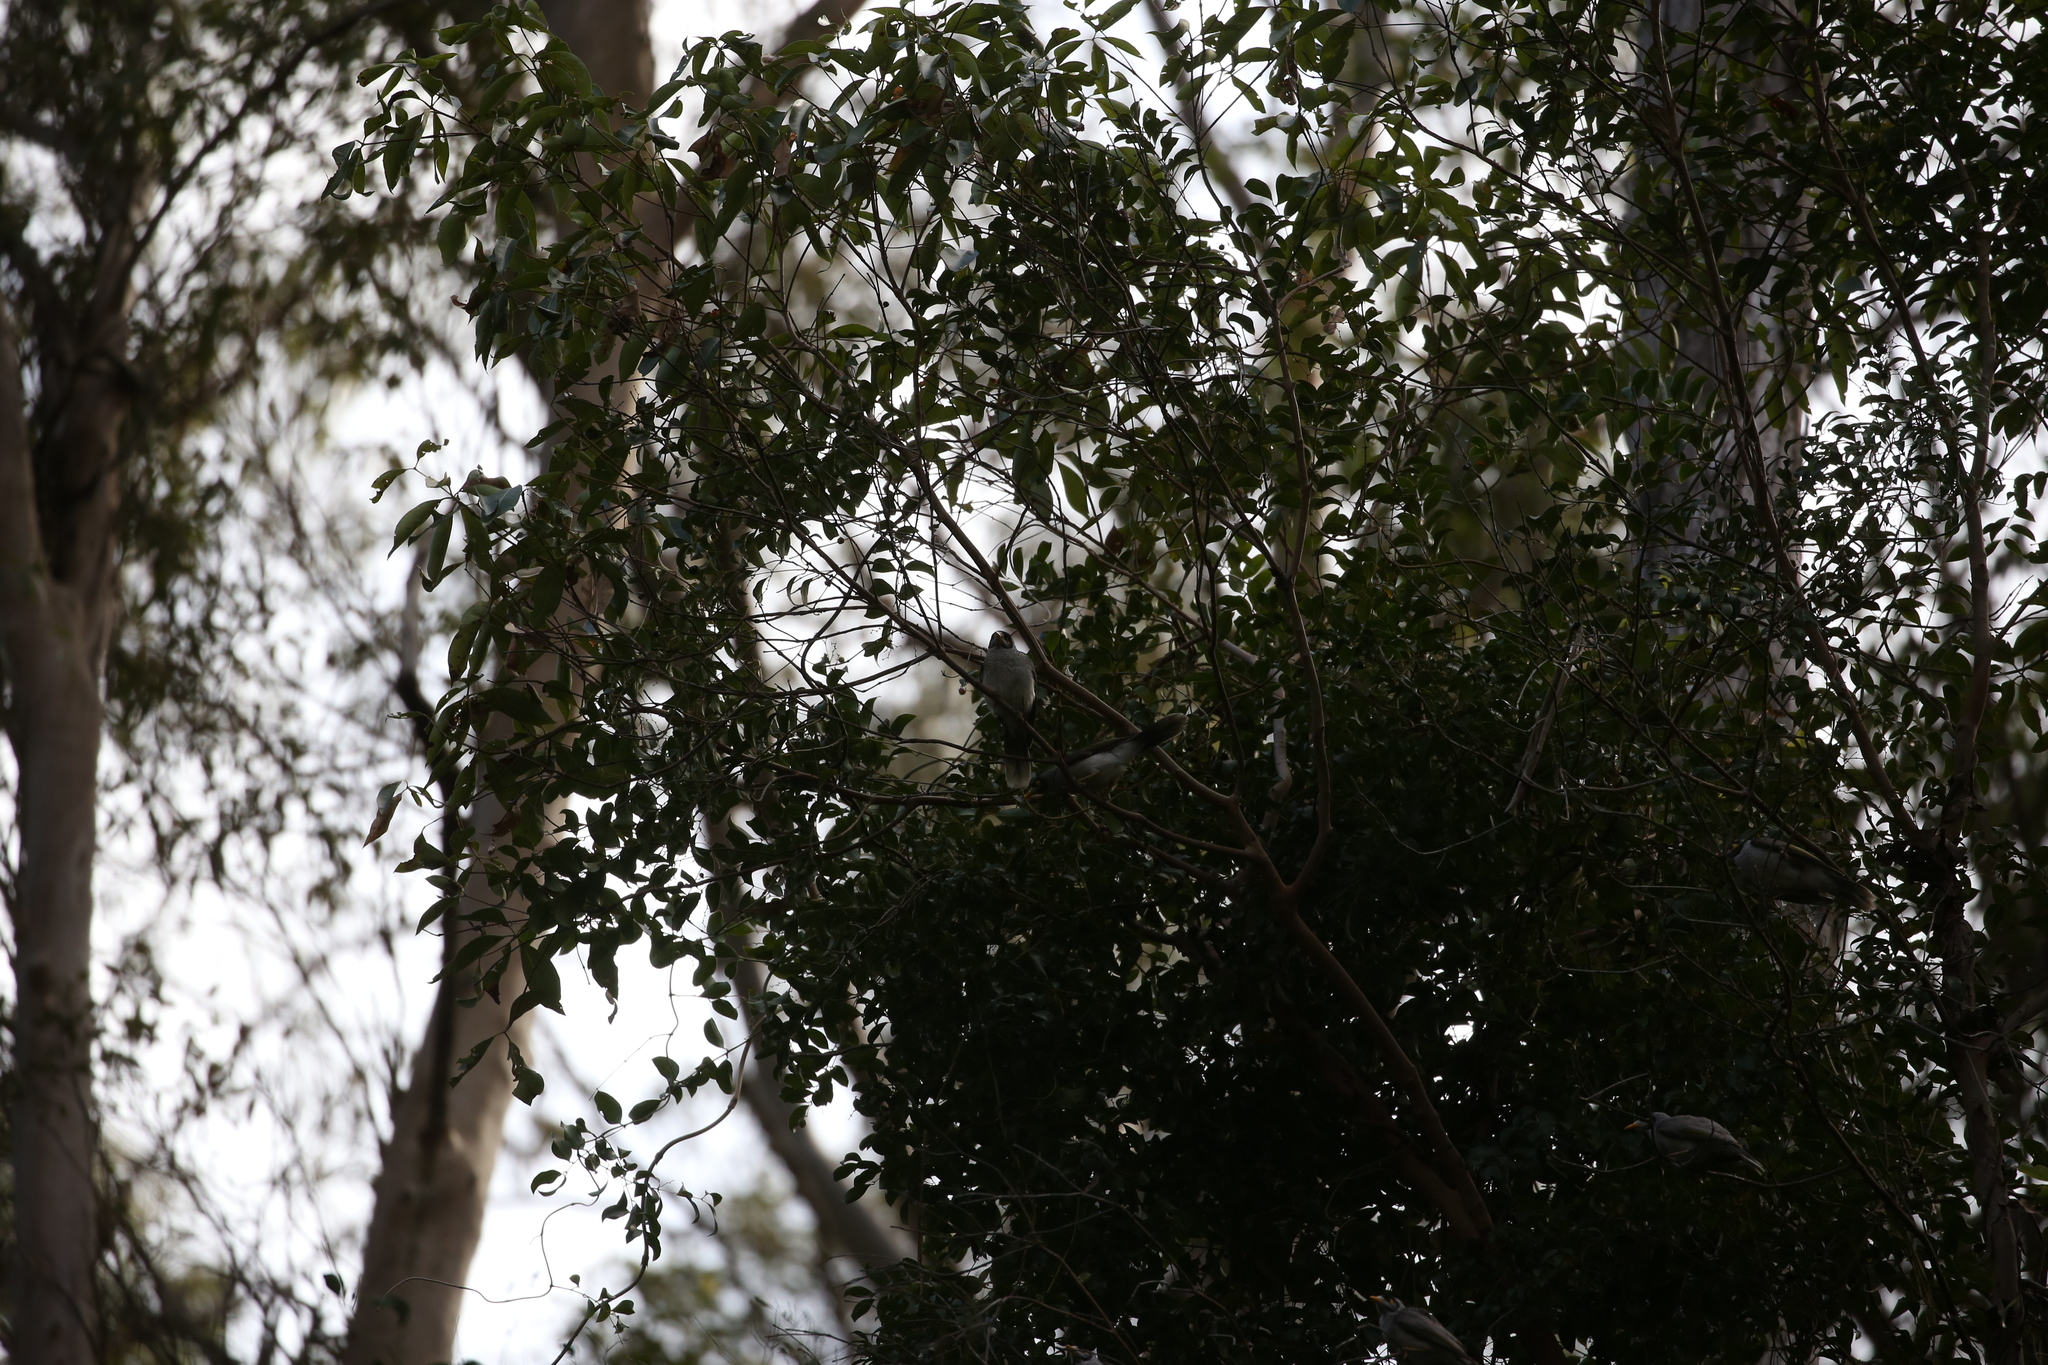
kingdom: Animalia
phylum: Chordata
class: Aves
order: Passeriformes
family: Meliphagidae
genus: Manorina
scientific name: Manorina melanocephala
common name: Noisy miner
